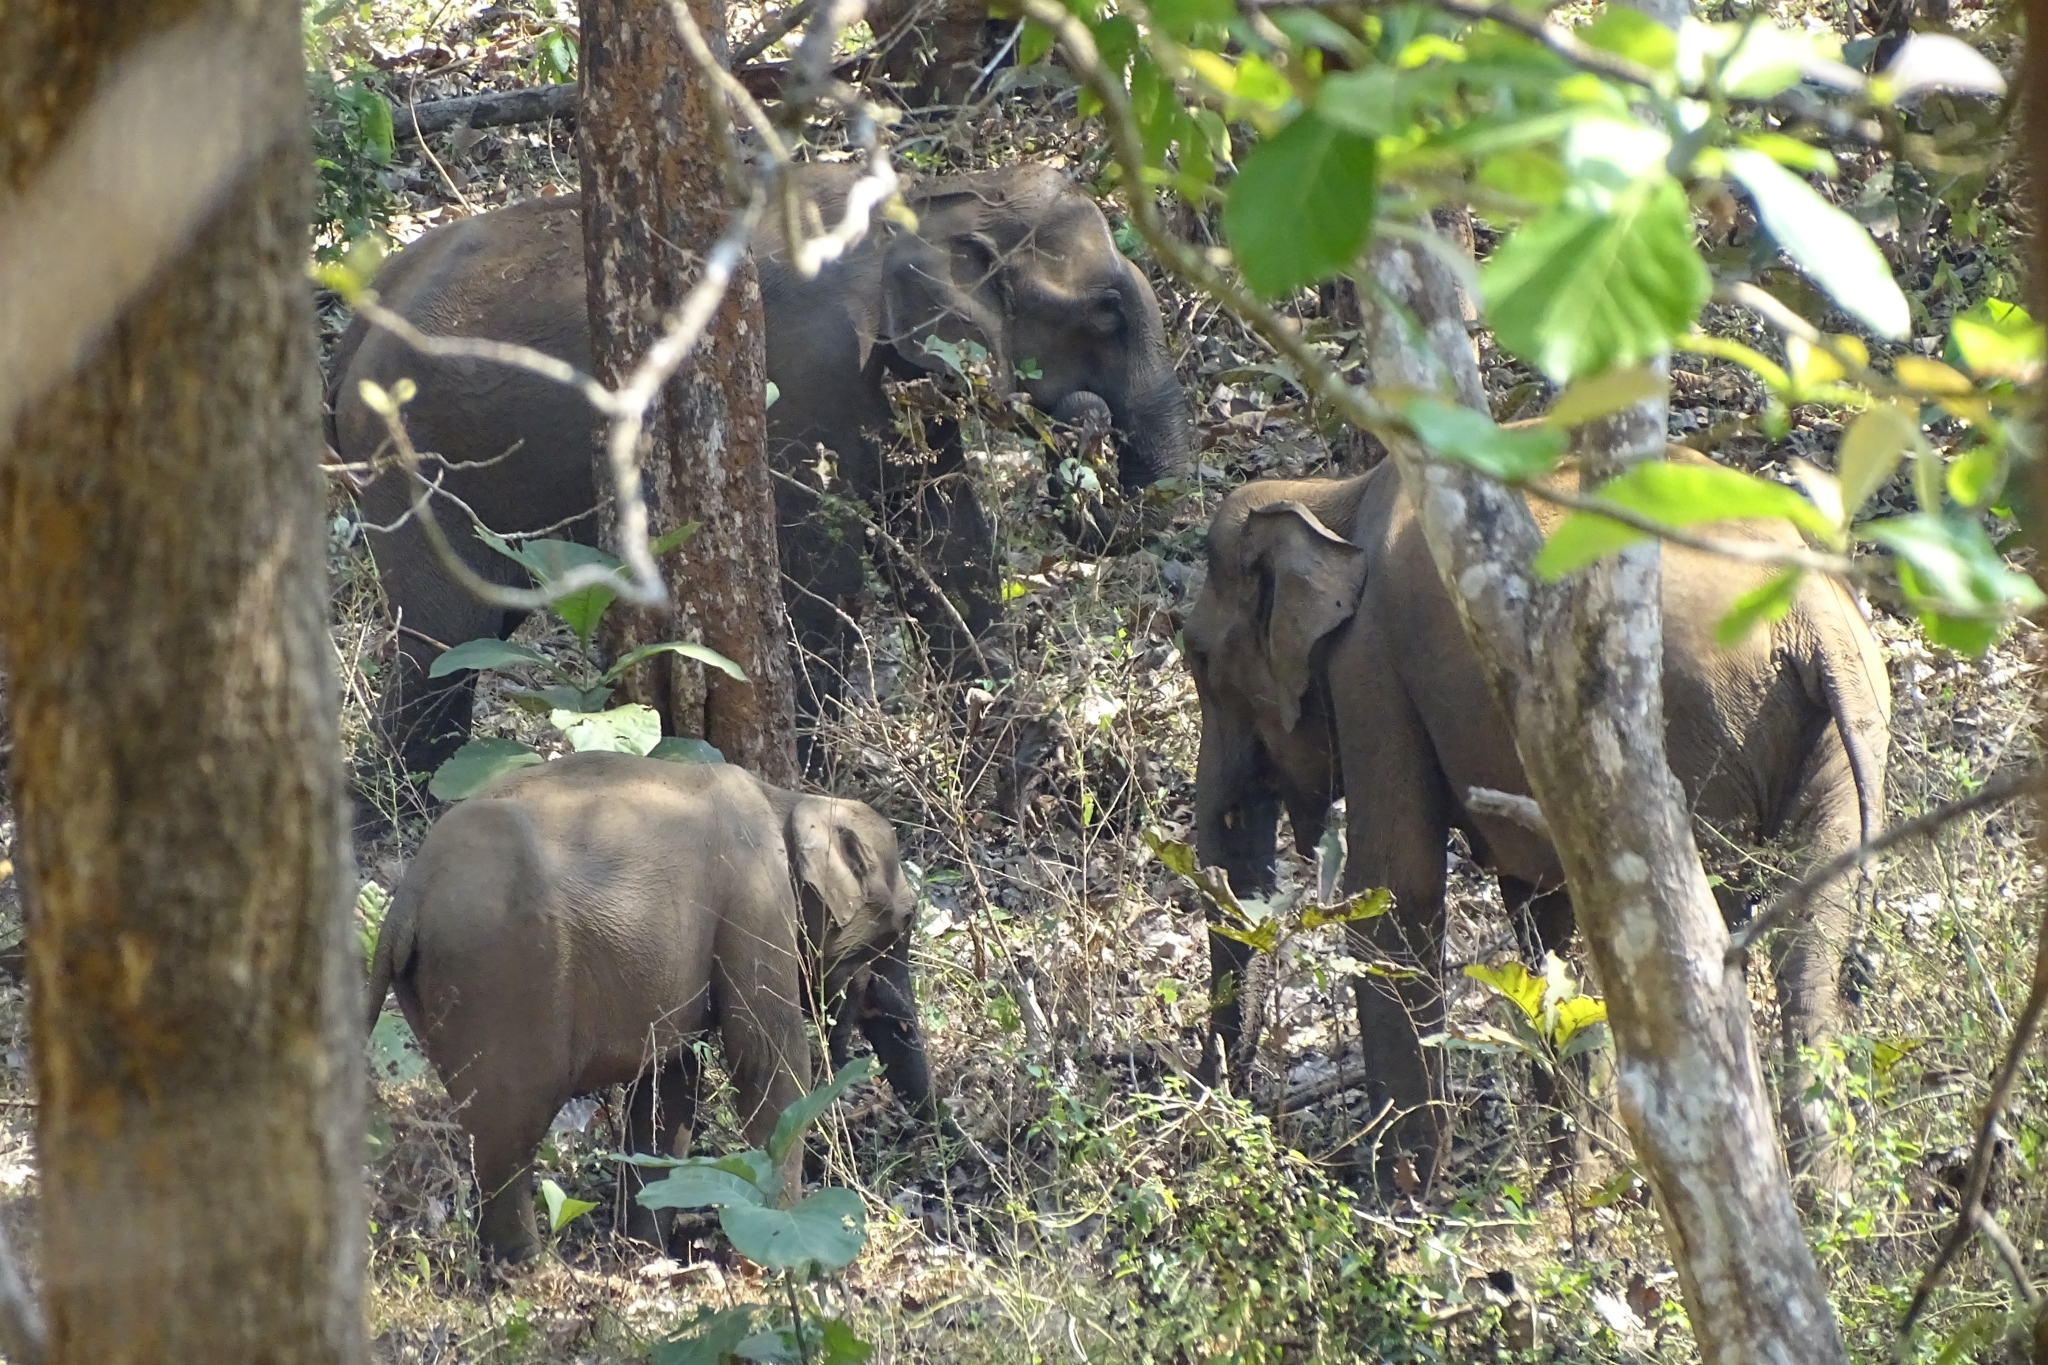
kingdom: Animalia
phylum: Chordata
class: Mammalia
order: Proboscidea
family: Elephantidae
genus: Elephas
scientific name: Elephas maximus
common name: Asian elephant
